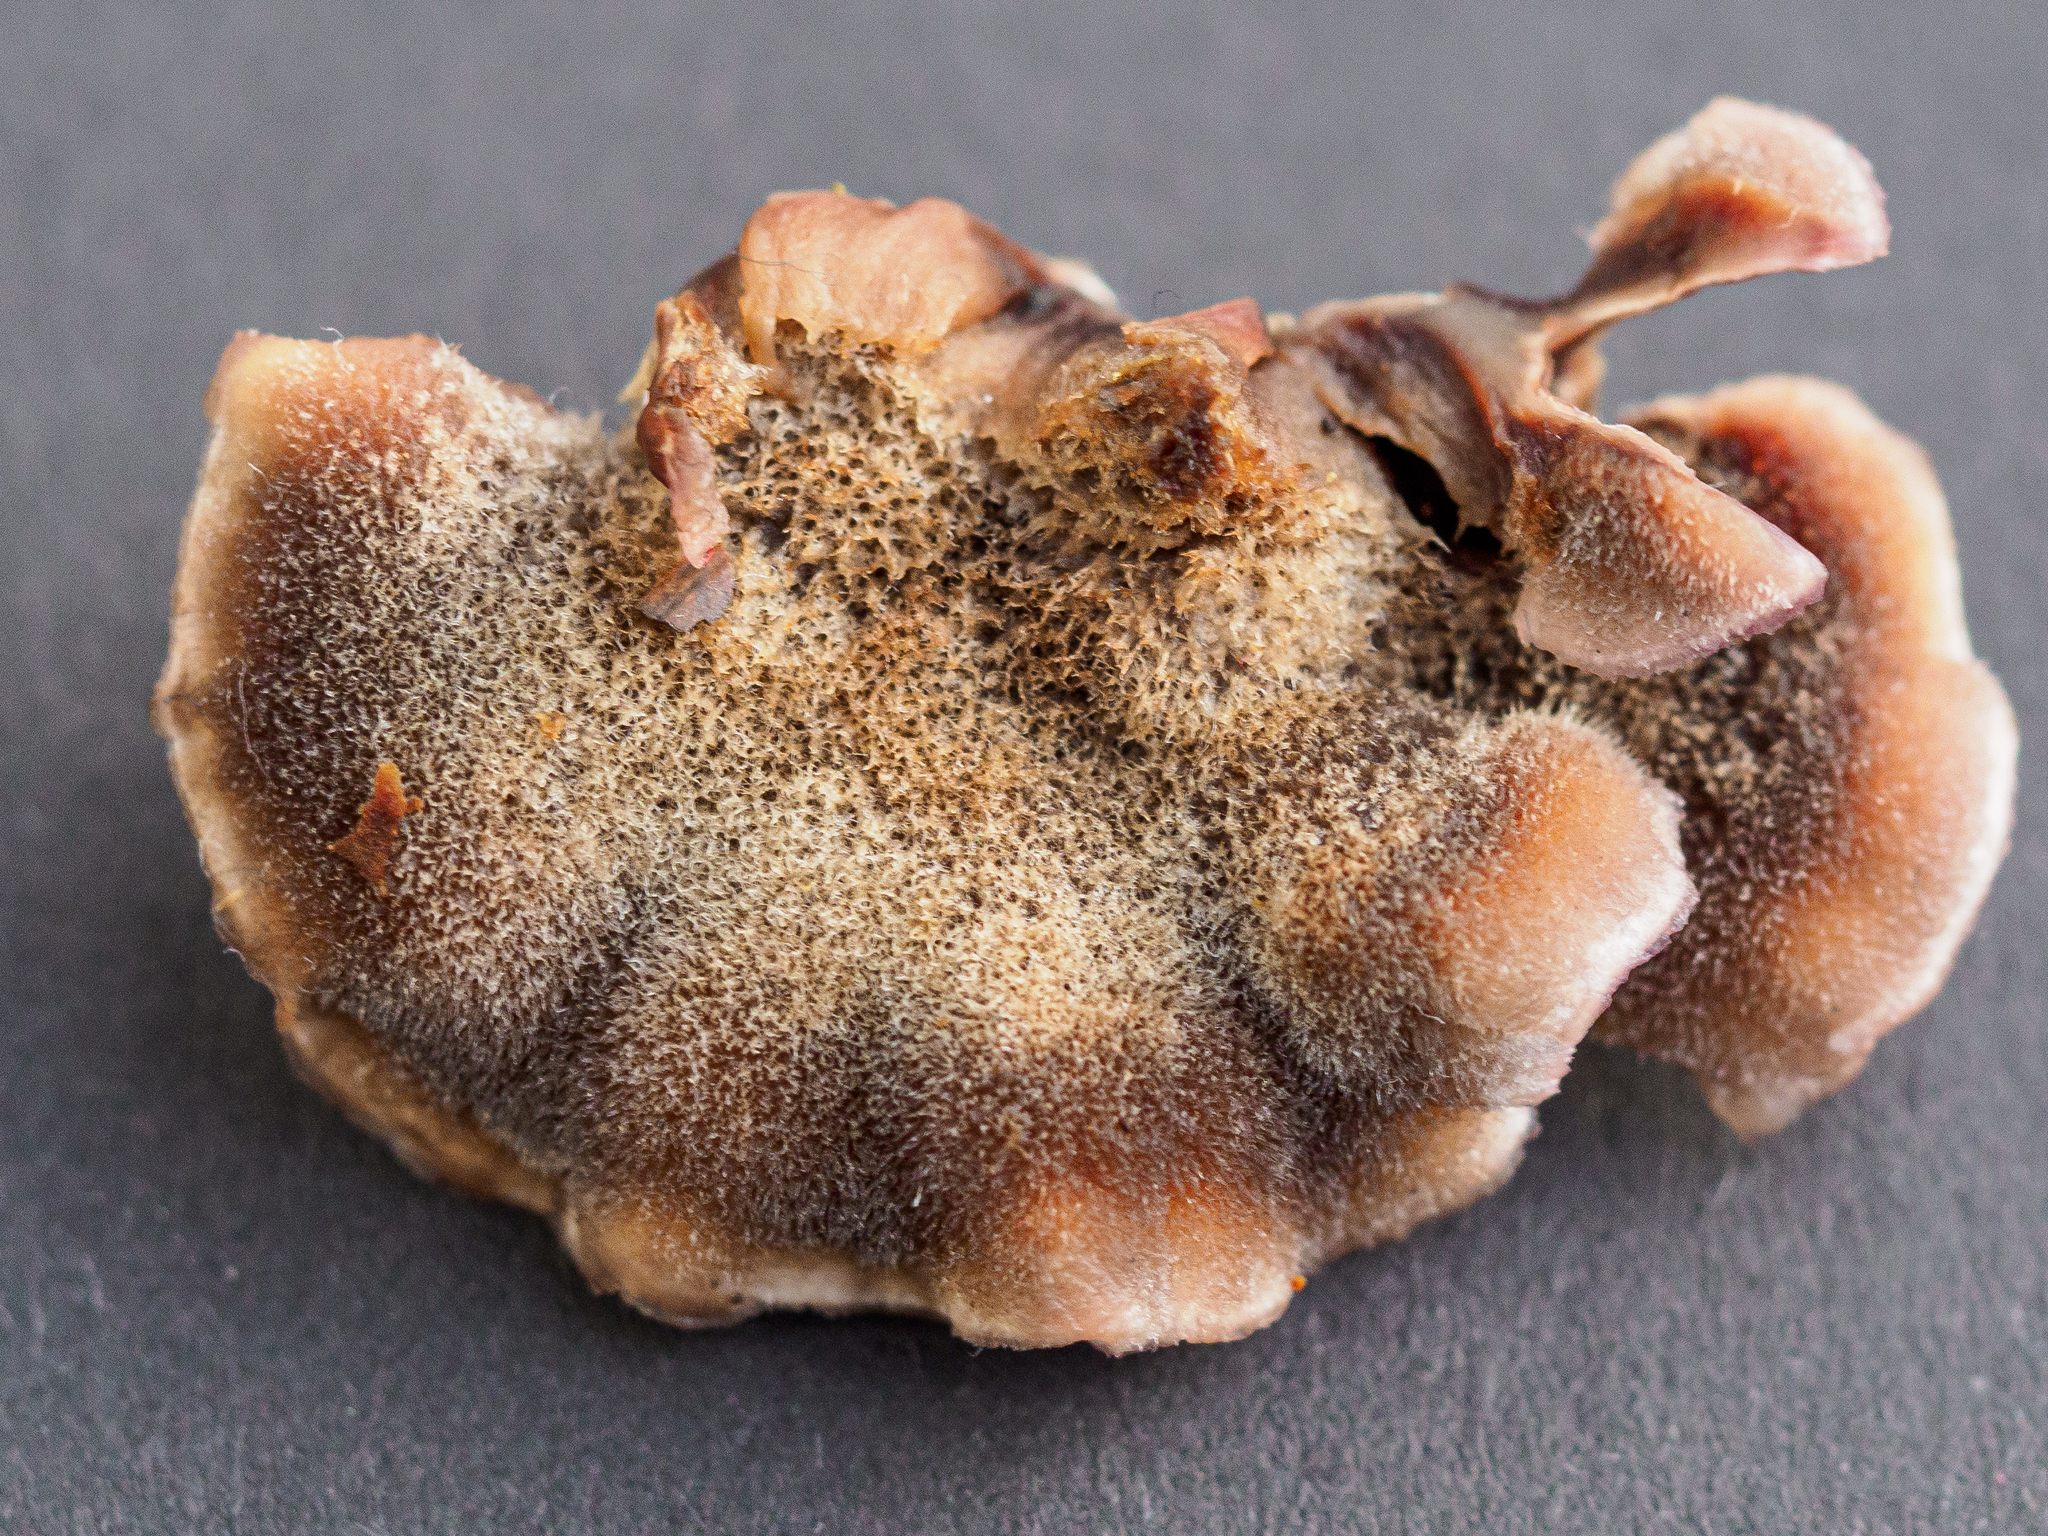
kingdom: Fungi
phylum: Basidiomycota
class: Agaricomycetes
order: Agaricales
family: Cyphellaceae
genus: Chondrostereum
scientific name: Chondrostereum purpureum
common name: Silver leaf disease
